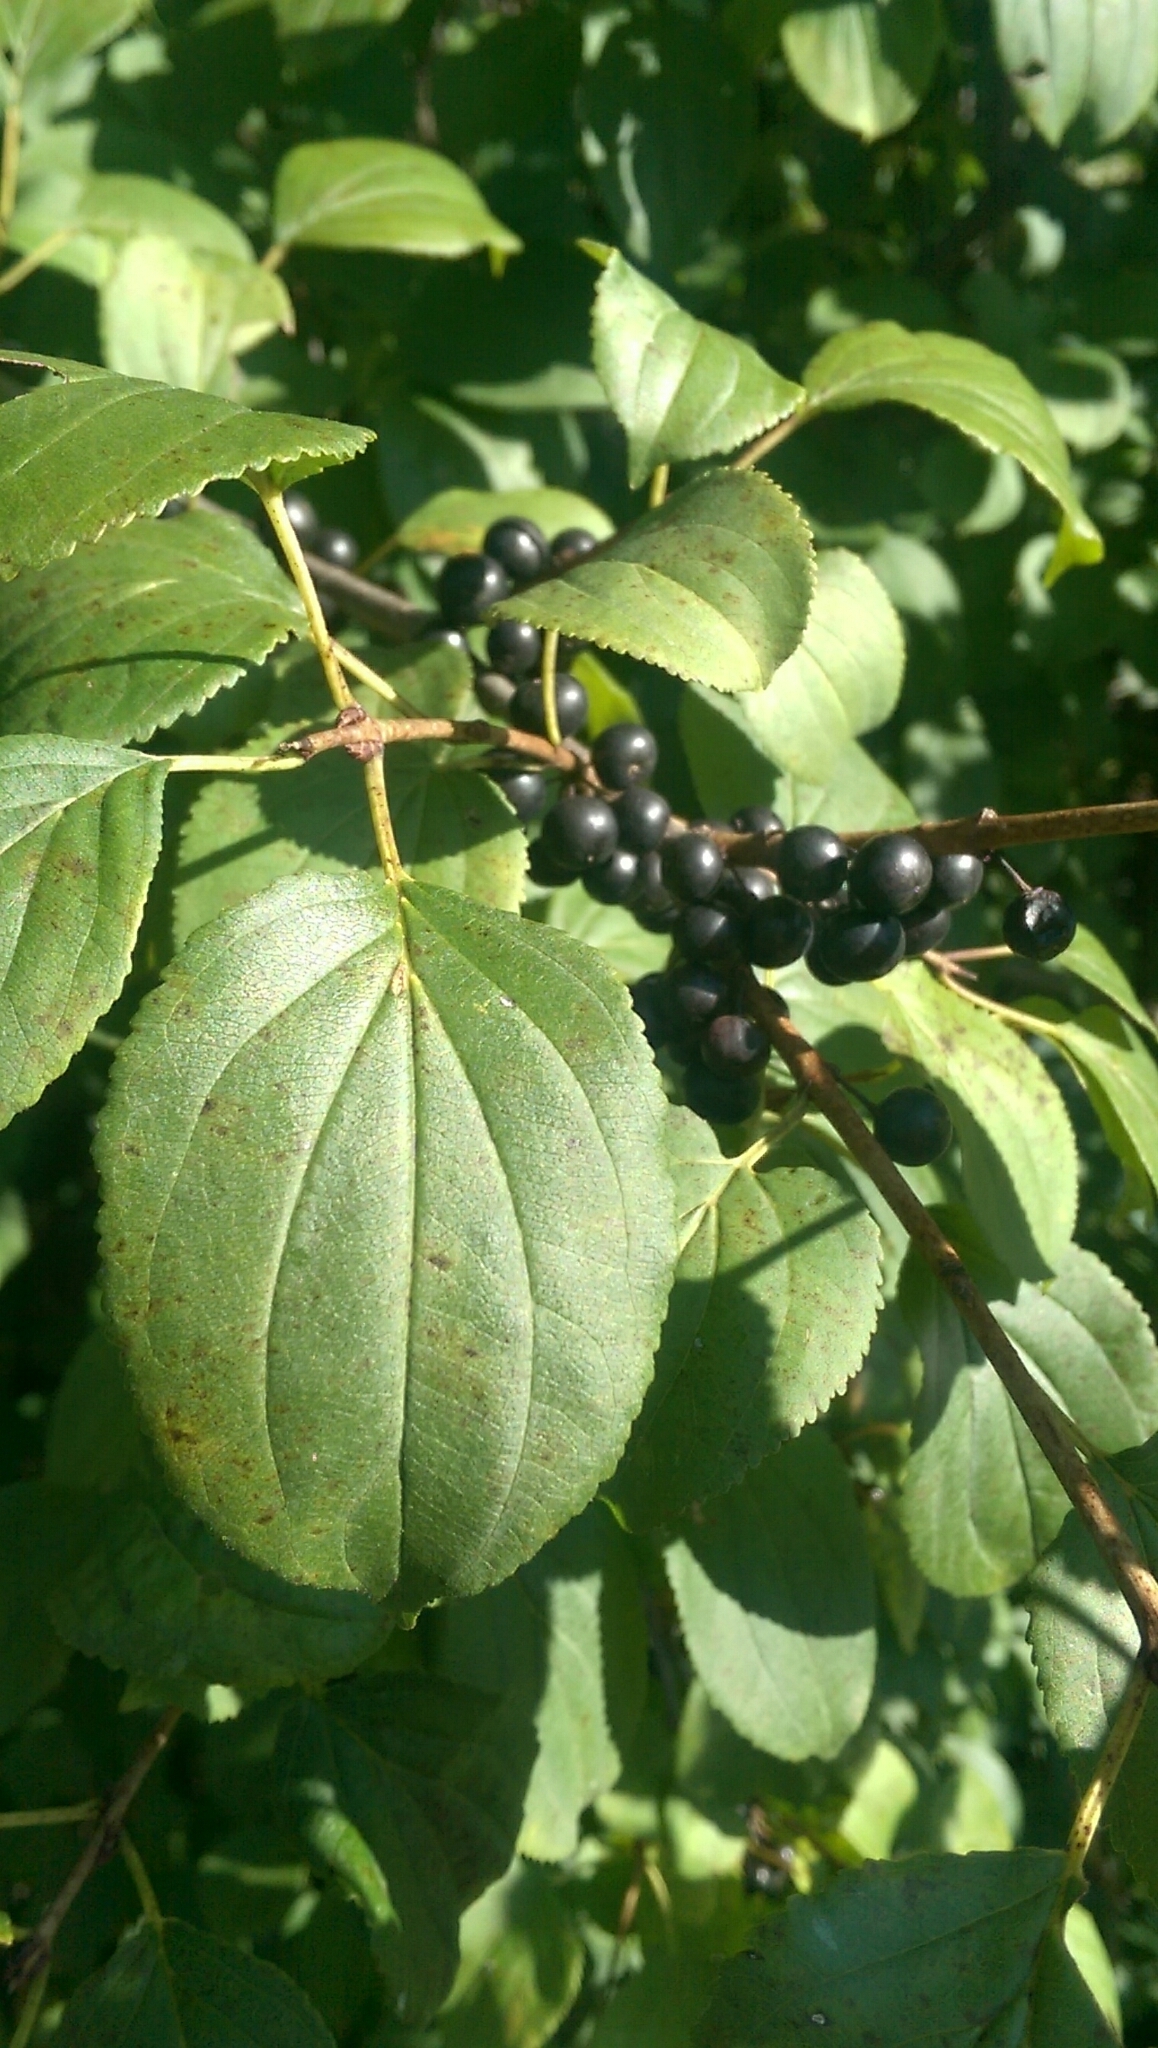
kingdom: Plantae
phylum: Tracheophyta
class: Magnoliopsida
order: Rosales
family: Rhamnaceae
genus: Rhamnus
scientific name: Rhamnus cathartica
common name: Common buckthorn
